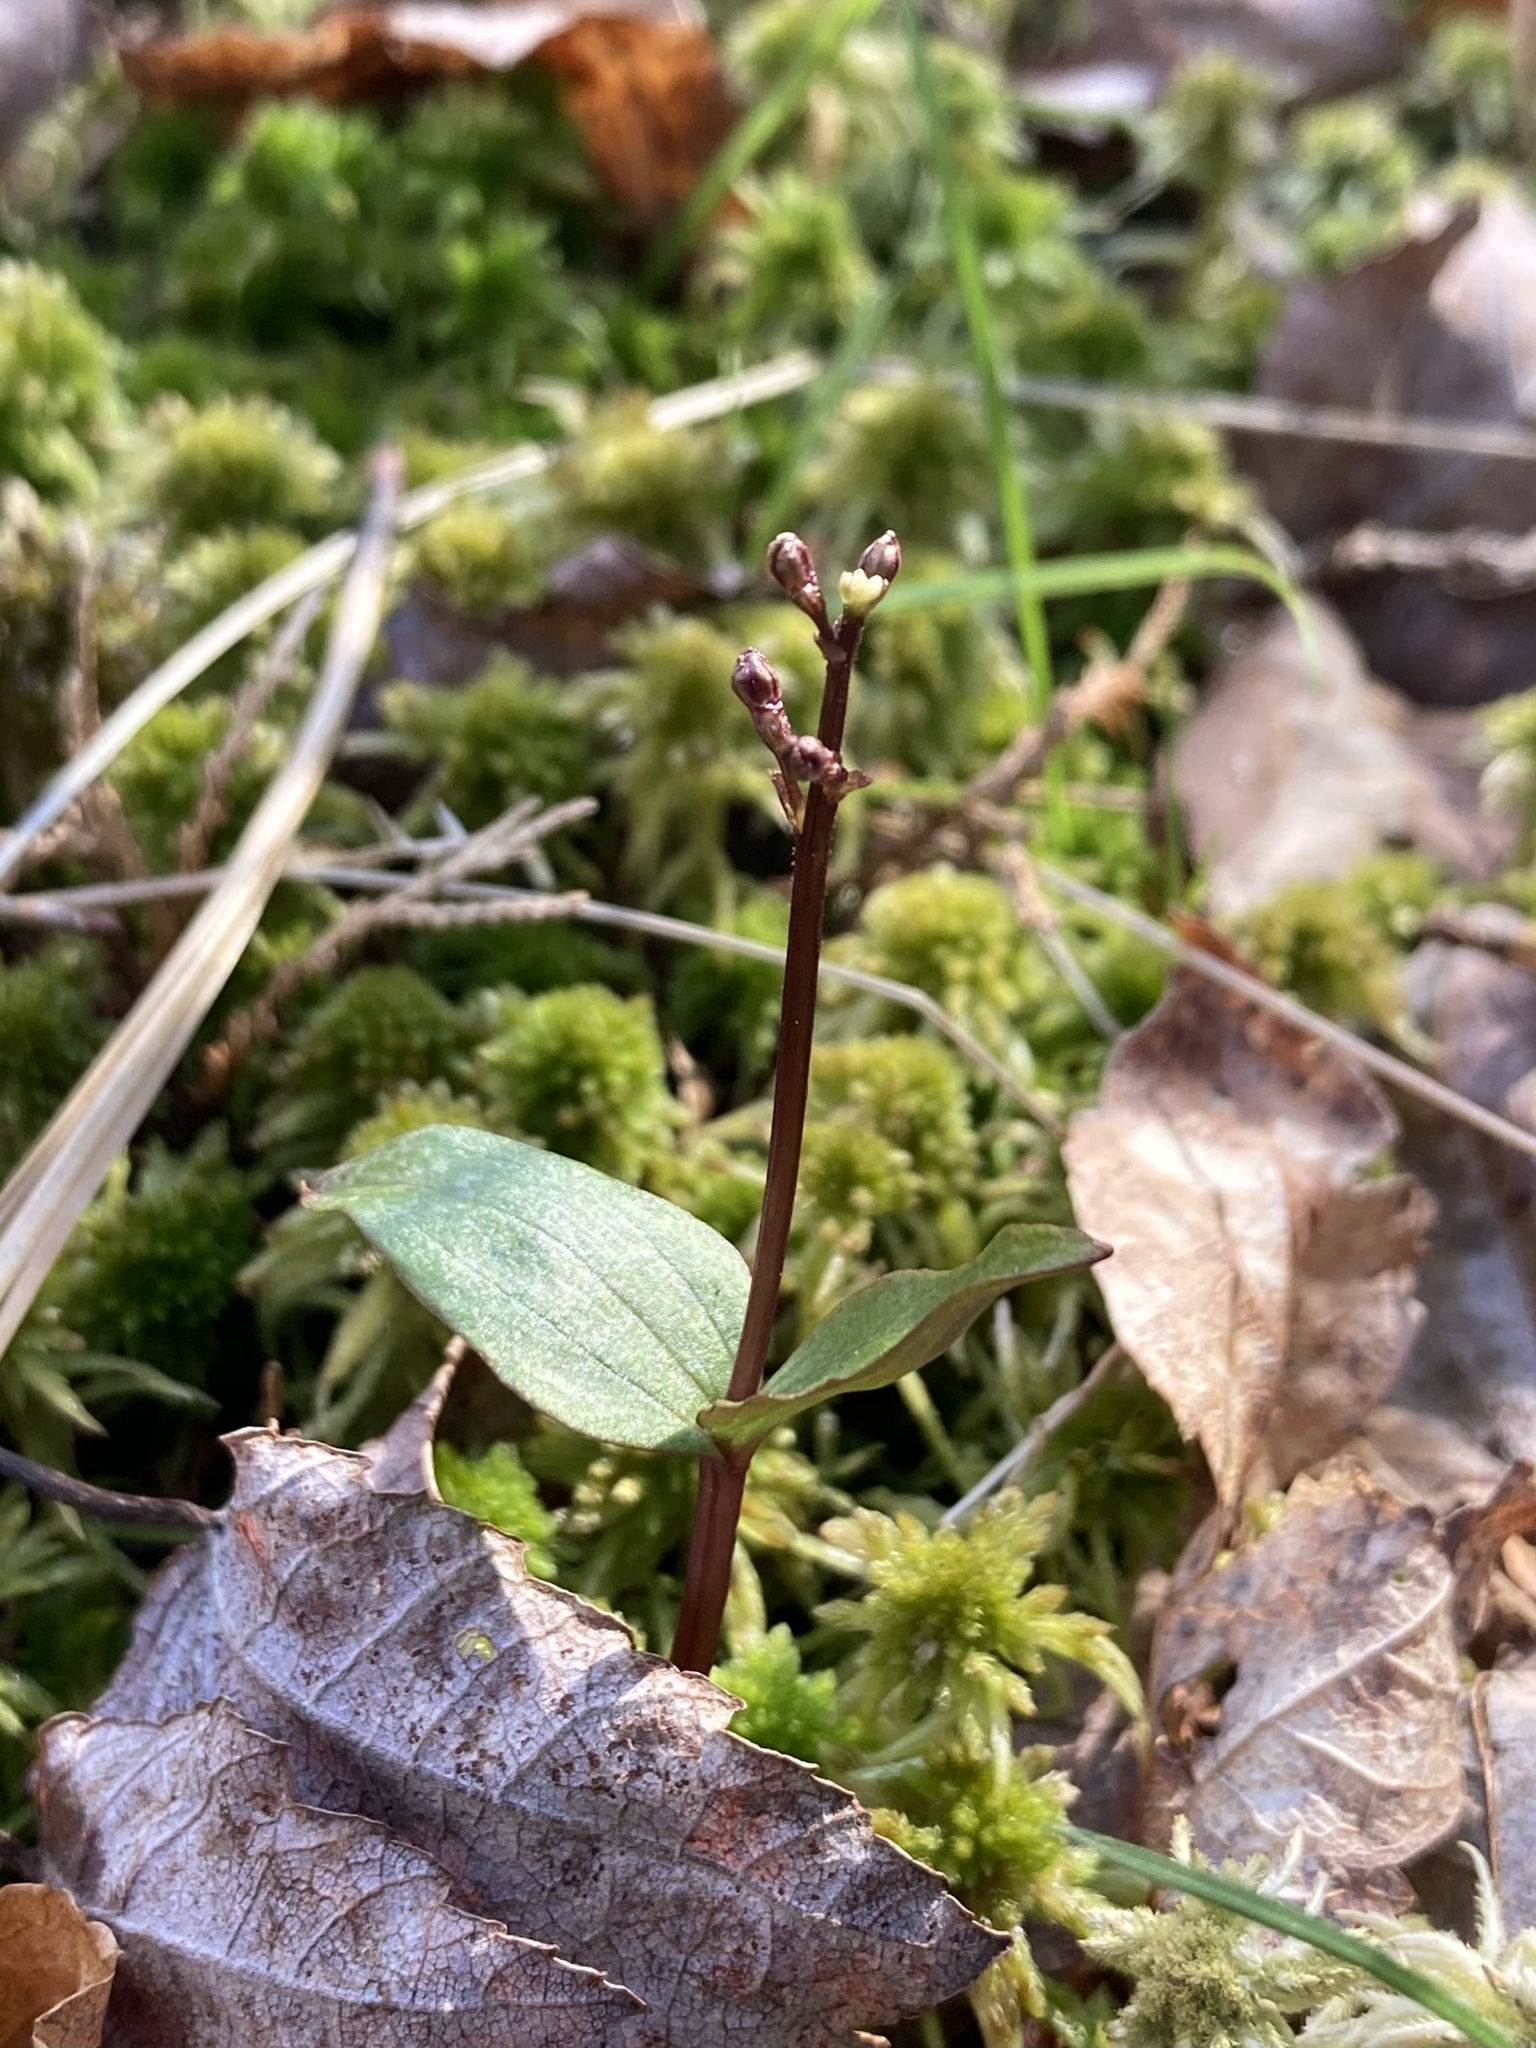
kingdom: Plantae
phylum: Tracheophyta
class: Liliopsida
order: Asparagales
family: Orchidaceae
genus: Neottia
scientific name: Neottia bifolia
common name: Southern twayblade
